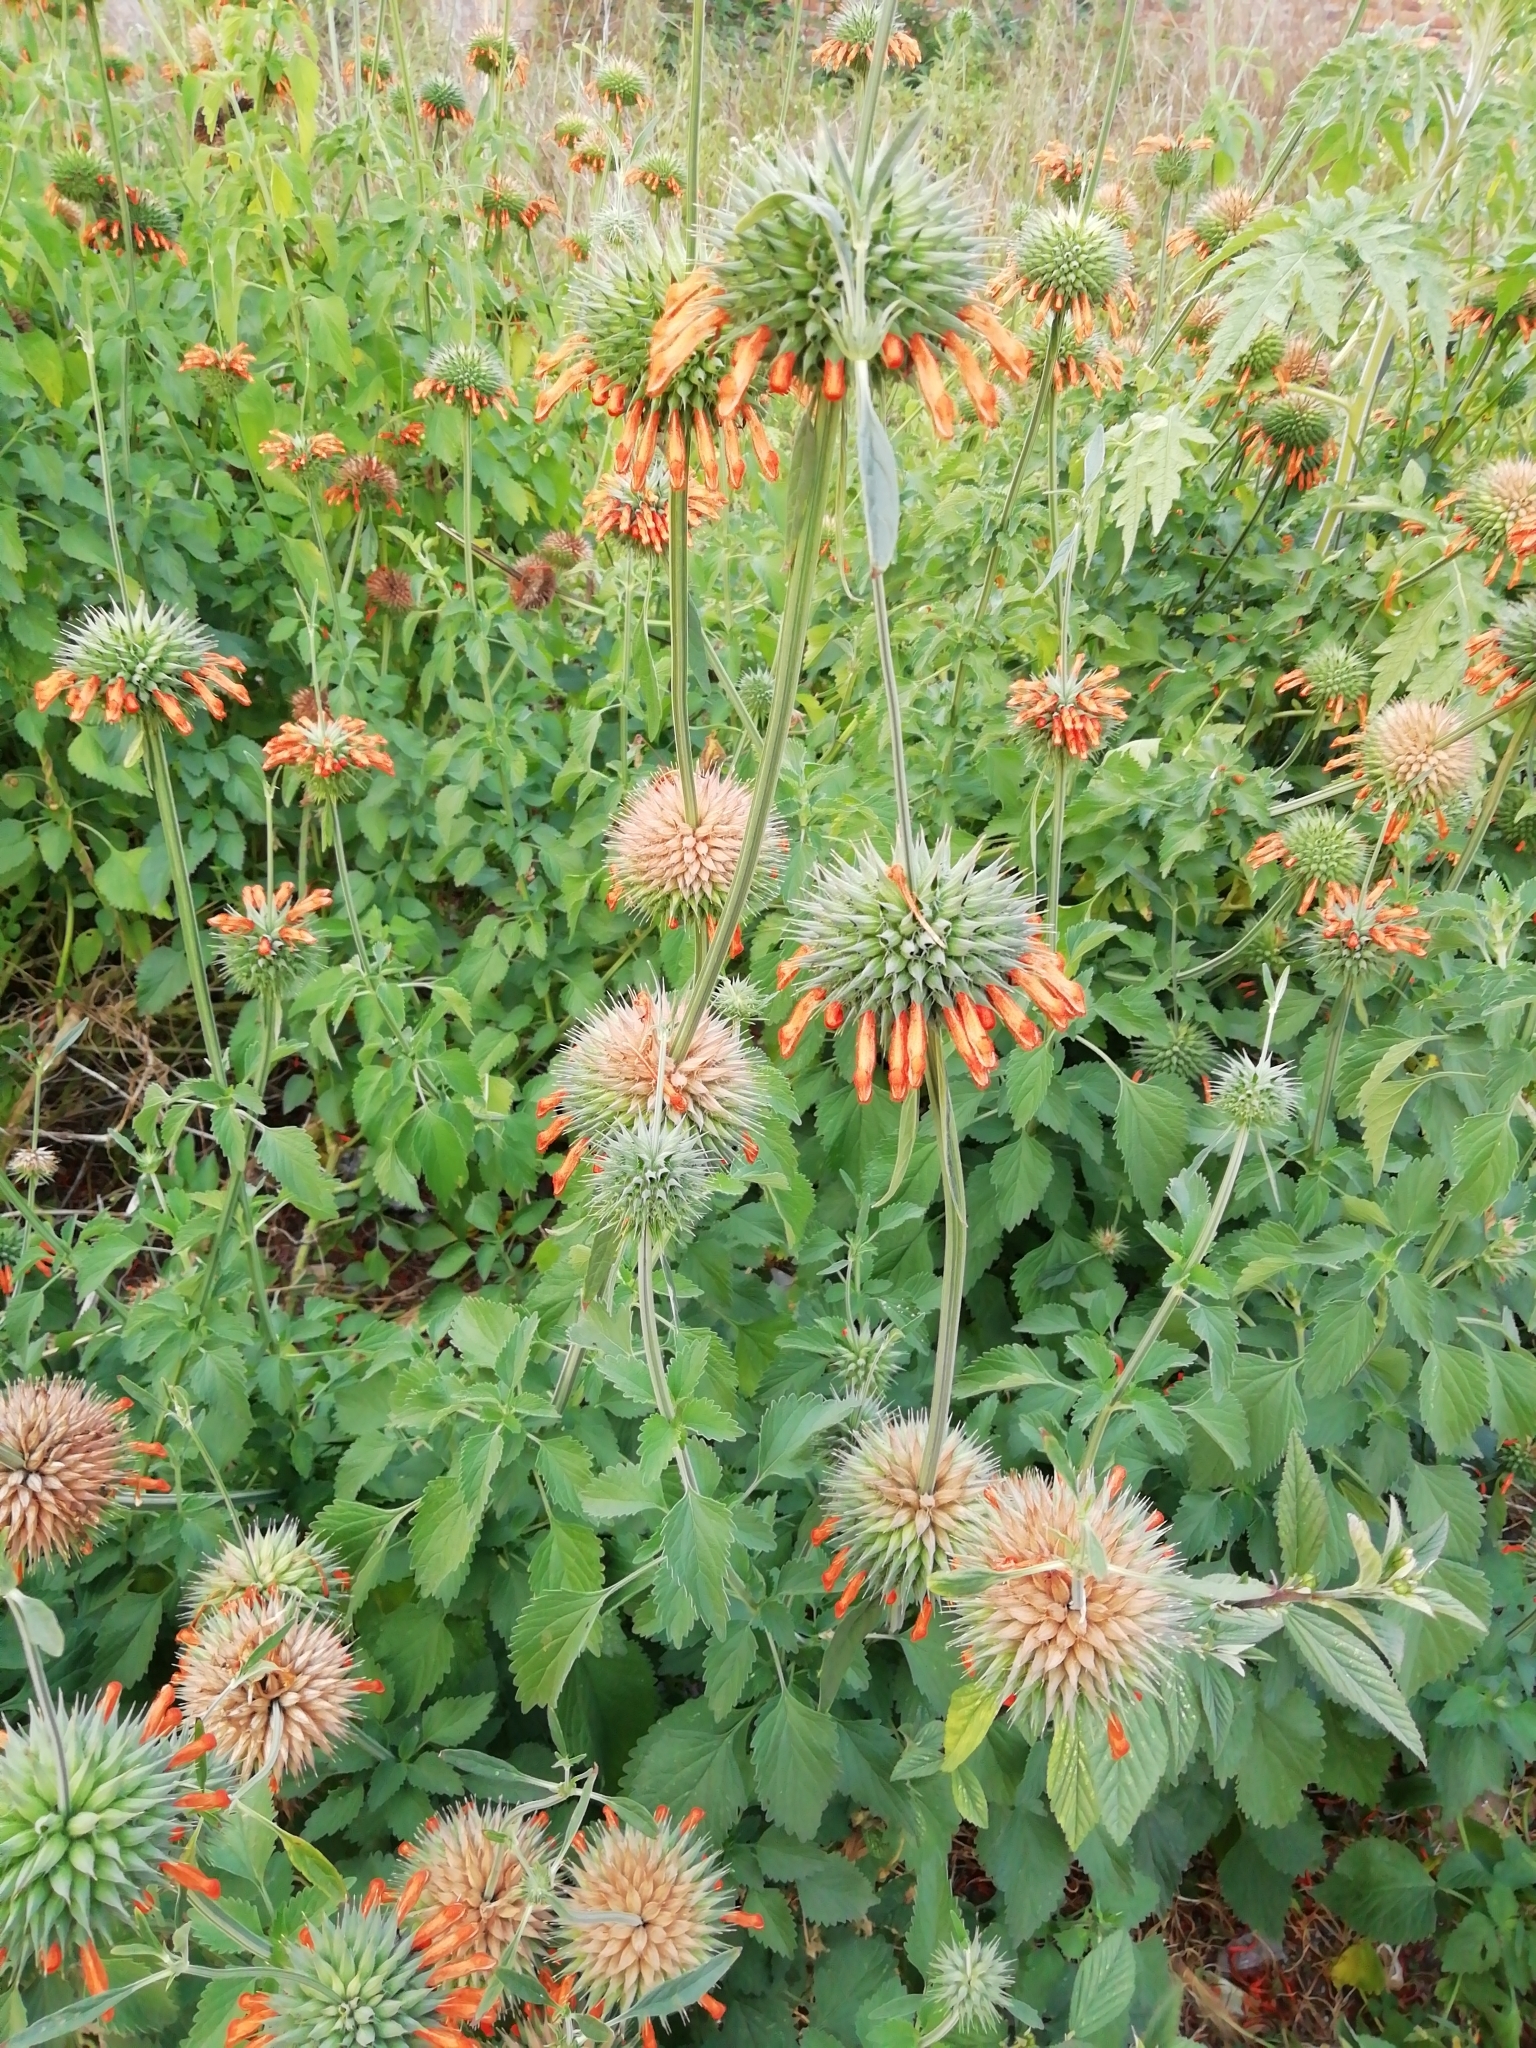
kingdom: Plantae
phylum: Tracheophyta
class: Magnoliopsida
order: Lamiales
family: Lamiaceae
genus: Leonotis
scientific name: Leonotis nepetifolia
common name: Christmas candlestick
